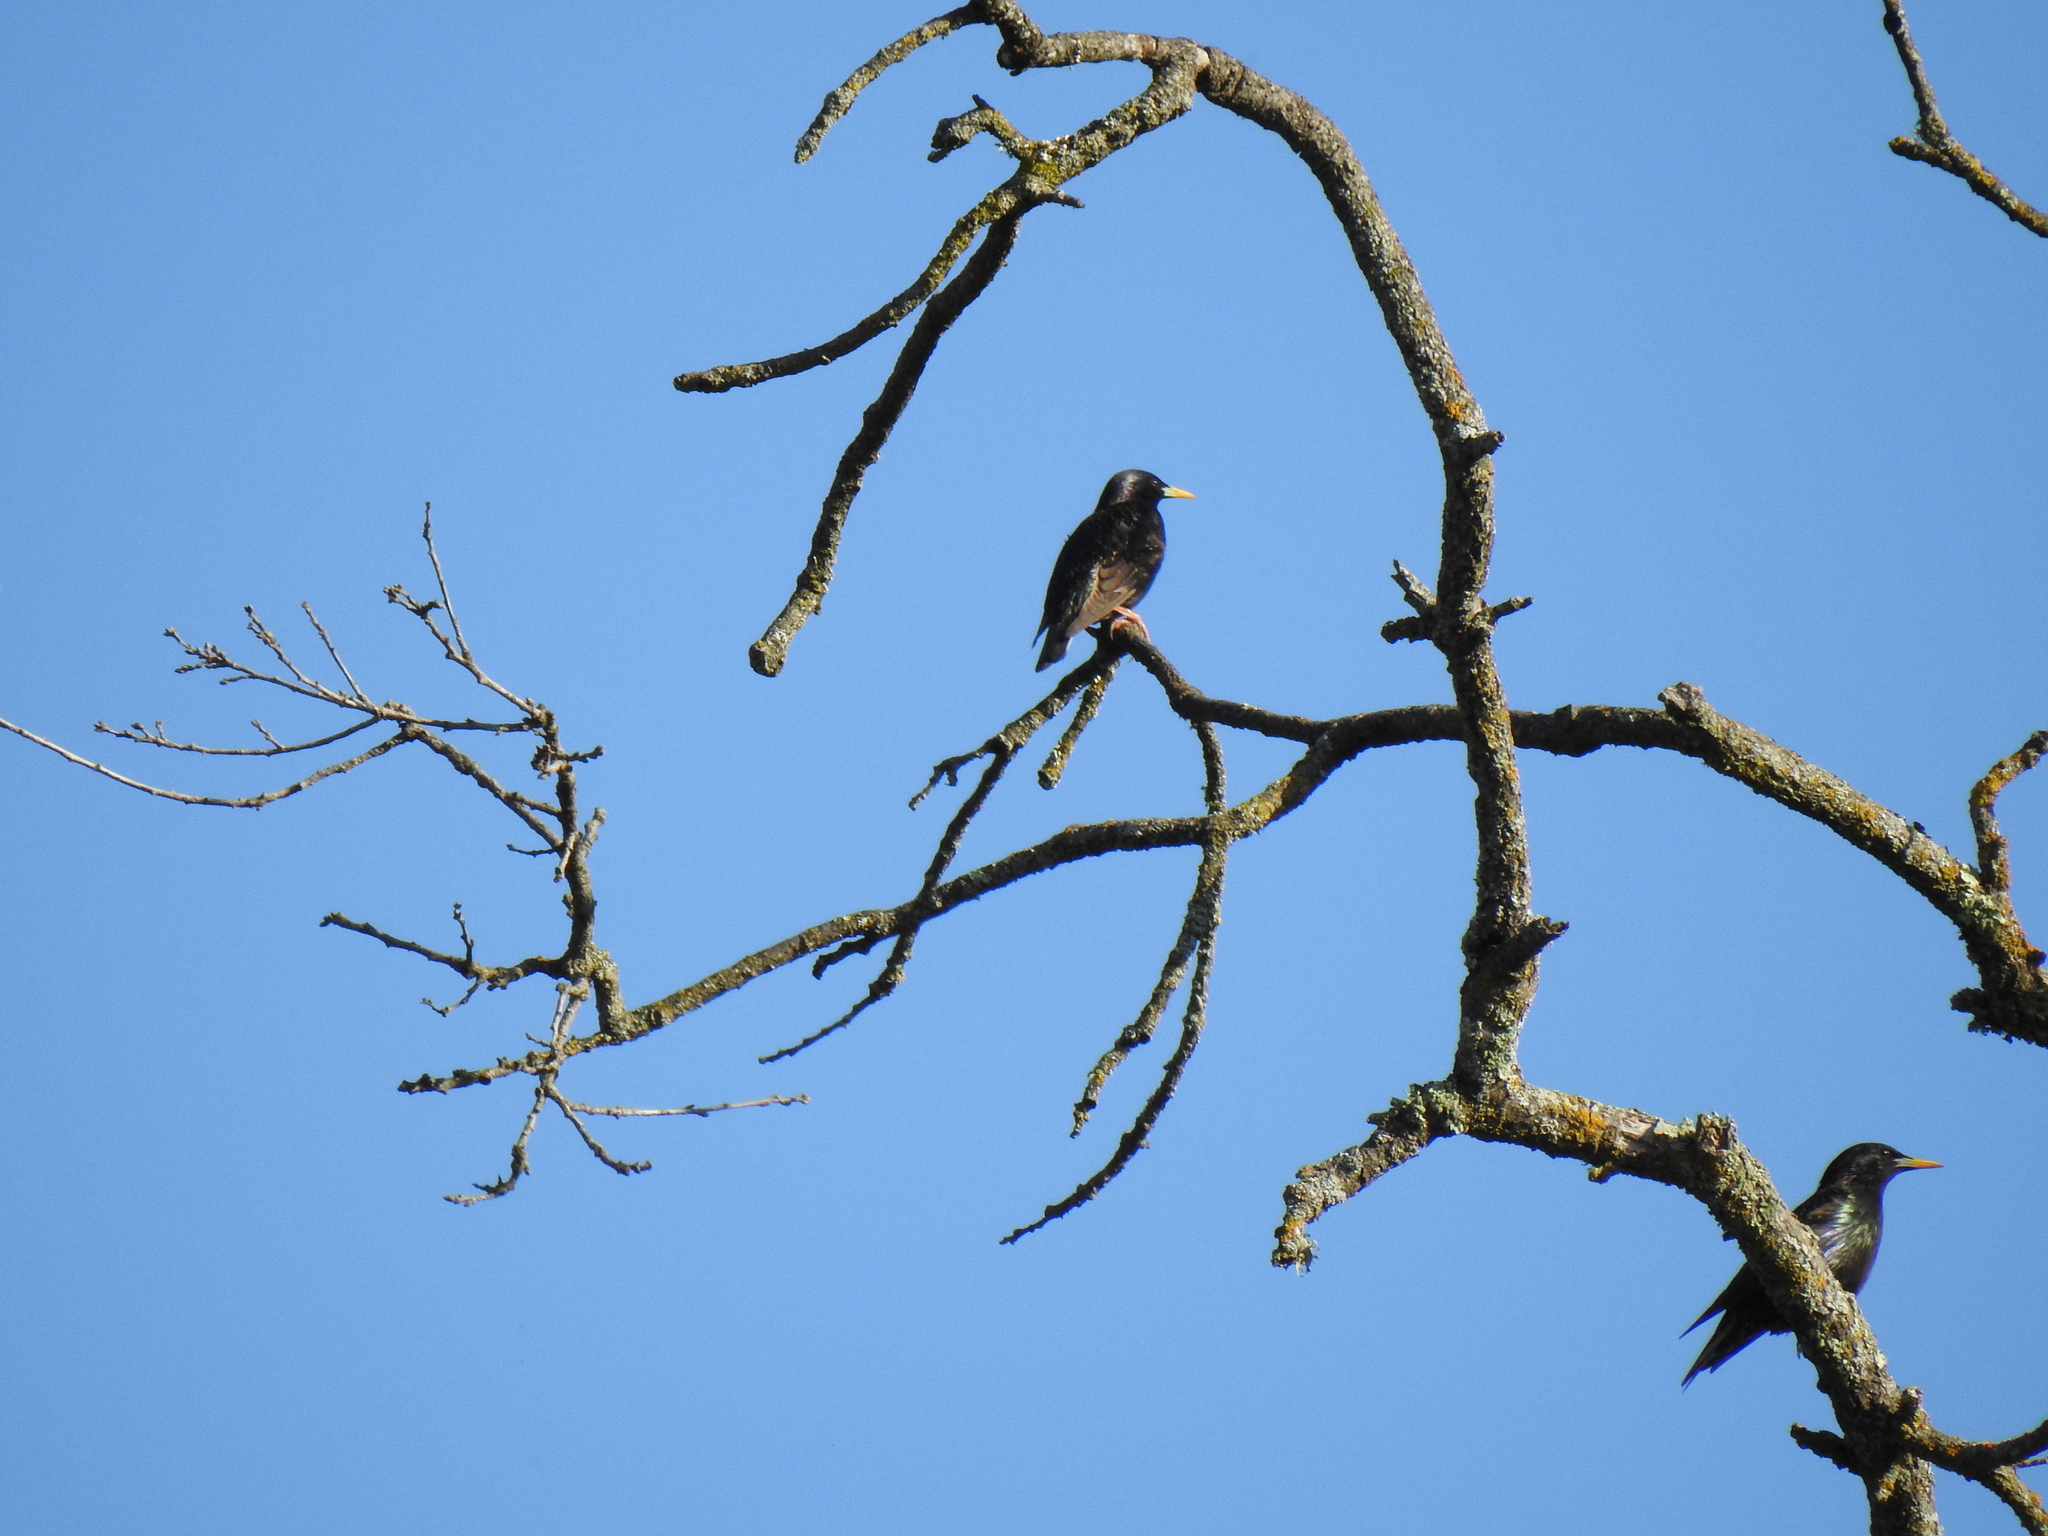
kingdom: Animalia
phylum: Chordata
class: Aves
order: Passeriformes
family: Sturnidae
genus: Sturnus
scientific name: Sturnus vulgaris
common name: Common starling
